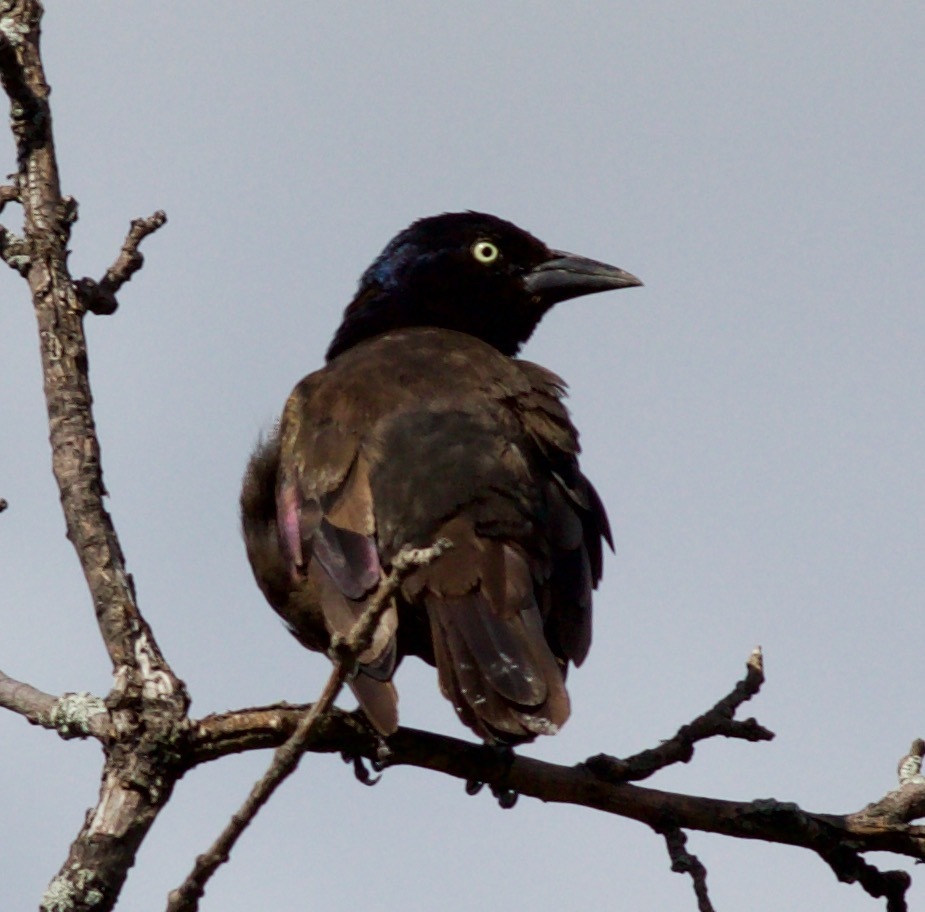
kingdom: Animalia
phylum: Chordata
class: Aves
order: Passeriformes
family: Icteridae
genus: Quiscalus
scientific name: Quiscalus quiscula
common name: Common grackle
